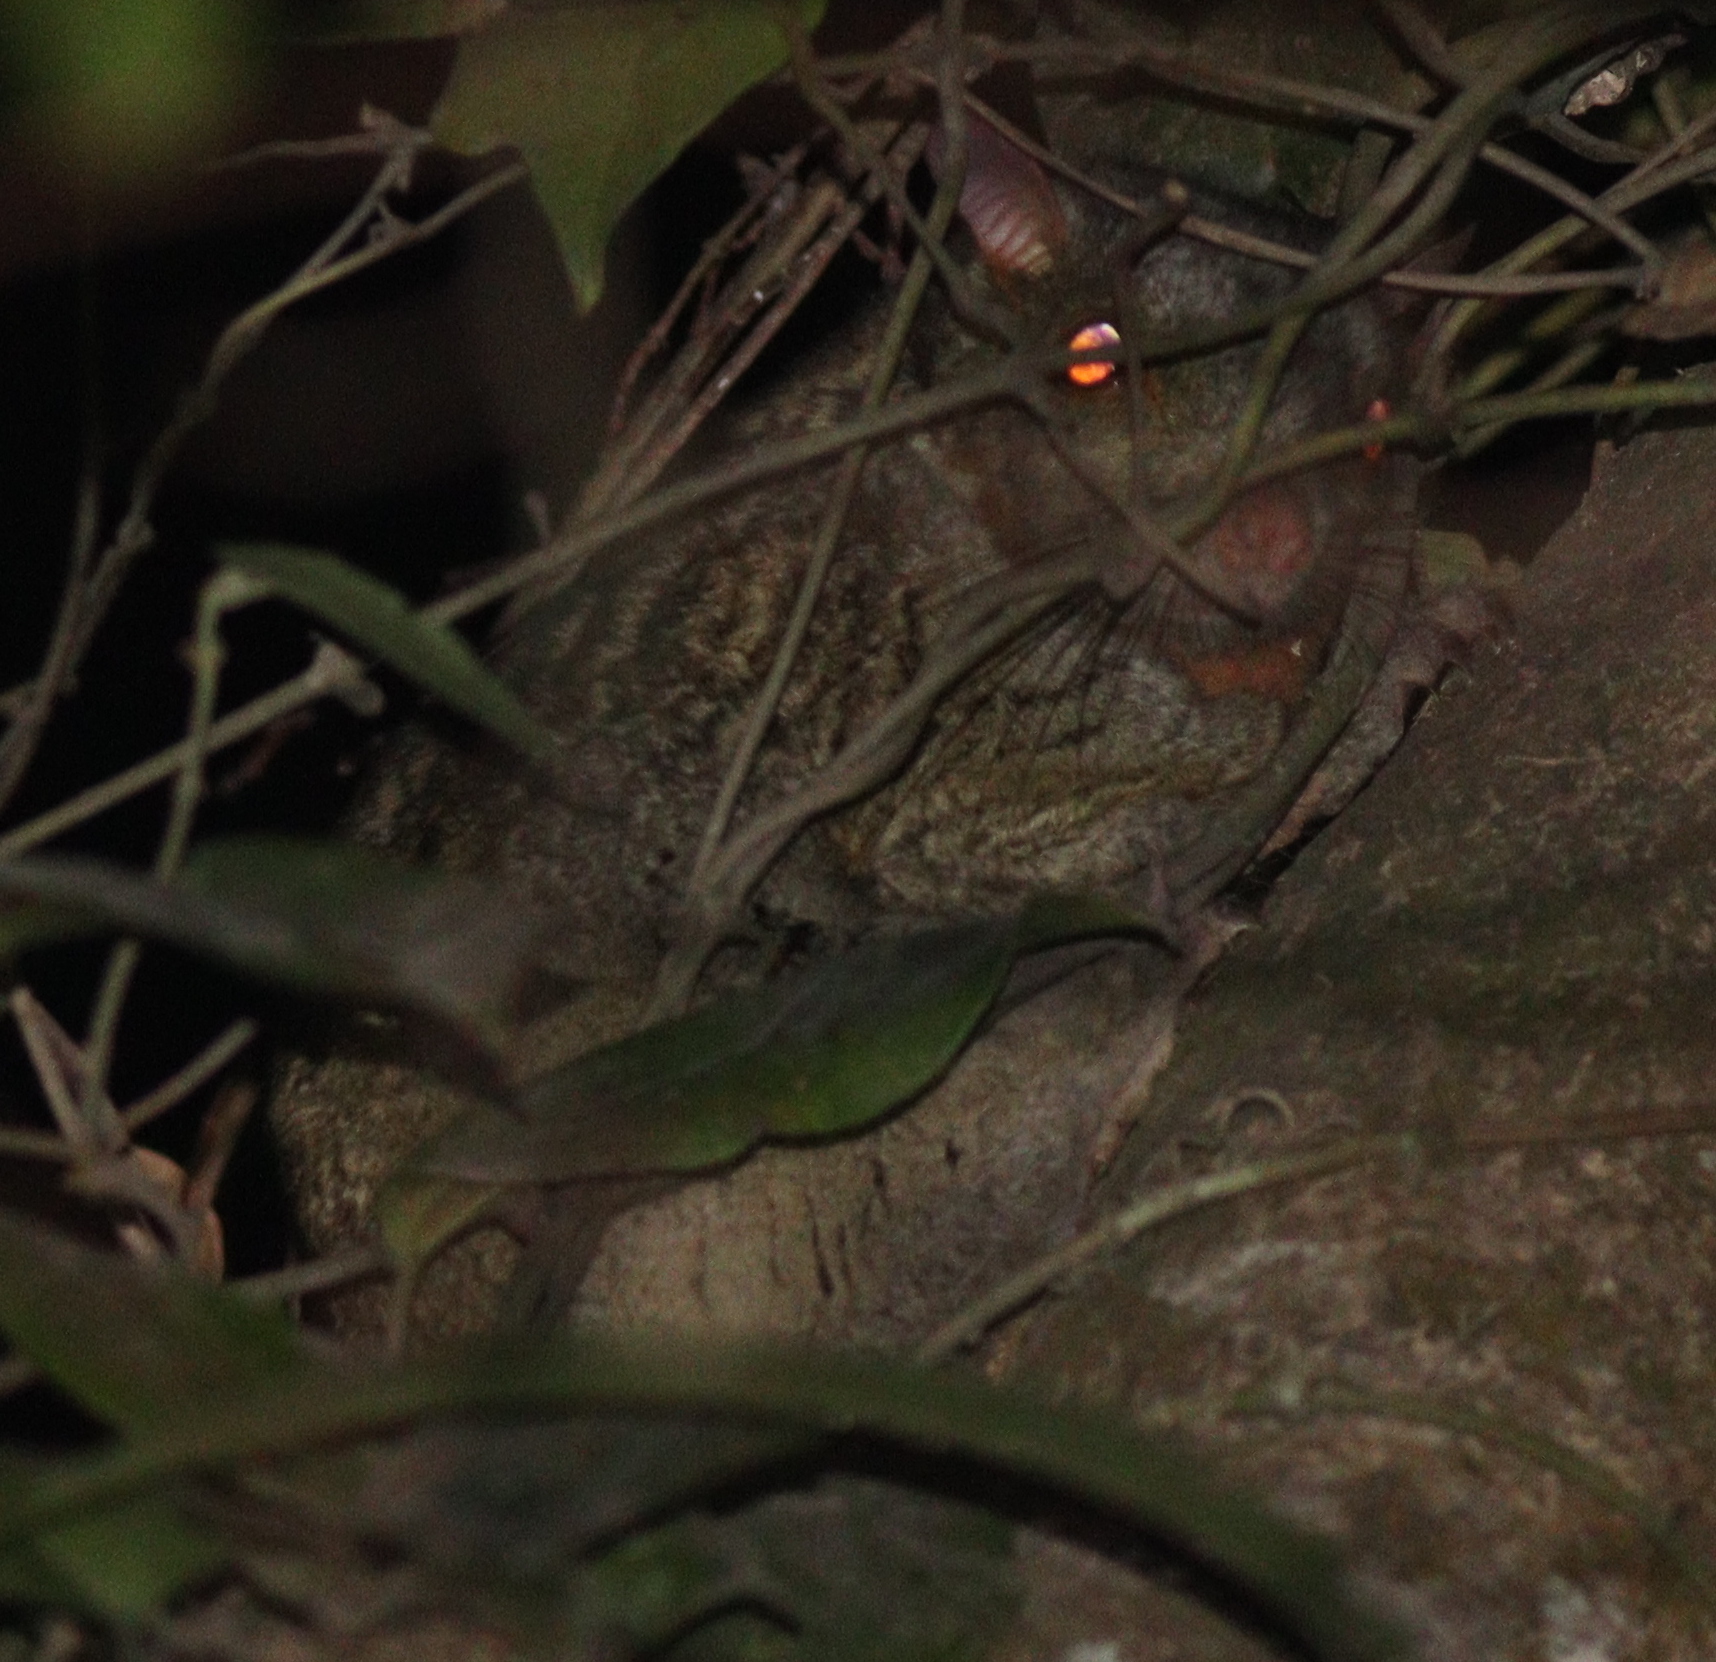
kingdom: Animalia
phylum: Chordata
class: Mammalia
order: Rodentia
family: Anomaluridae
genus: Anomalurus
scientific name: Anomalurus beecrofti
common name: Beecroft's scaly-tailed squirrel
